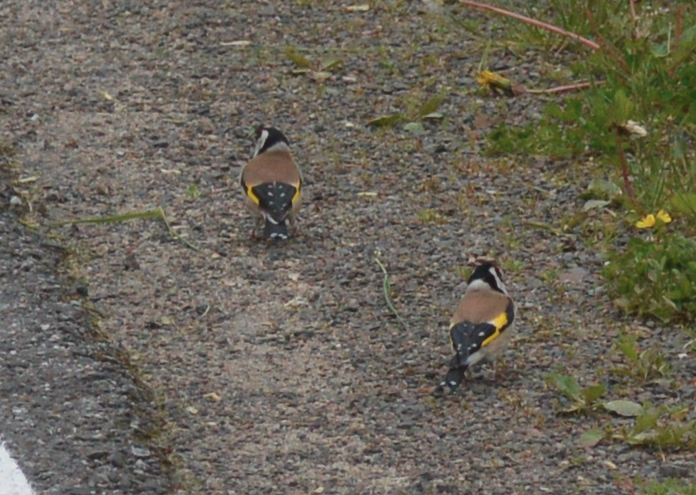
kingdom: Animalia
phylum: Chordata
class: Aves
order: Passeriformes
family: Fringillidae
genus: Carduelis
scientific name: Carduelis carduelis
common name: European goldfinch
